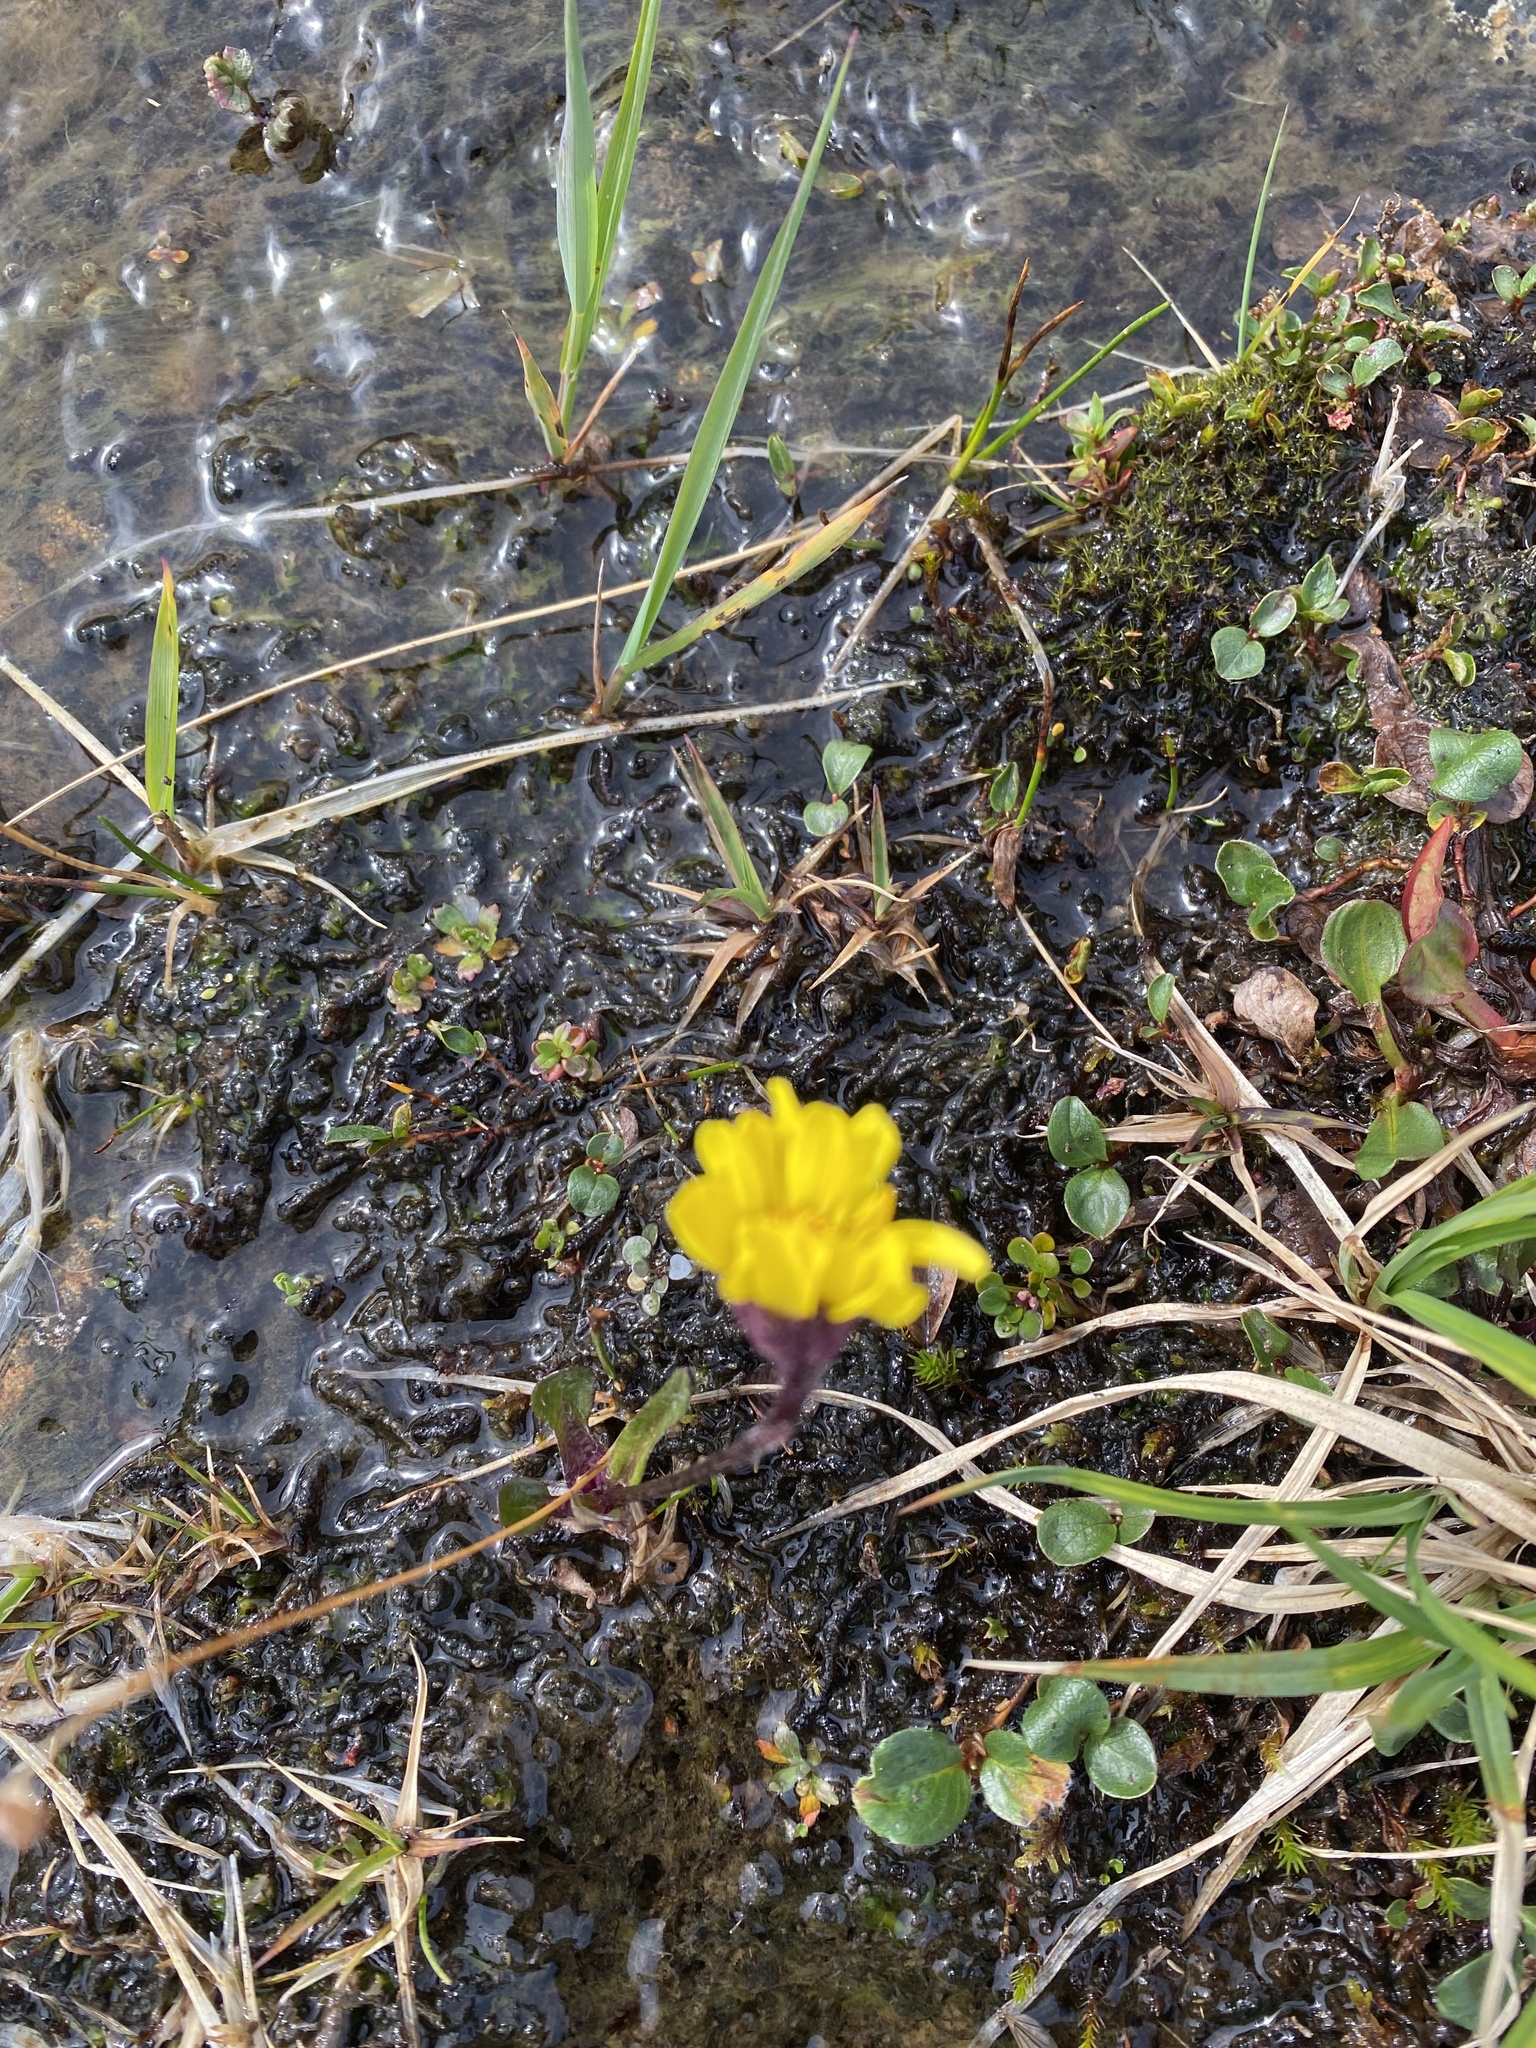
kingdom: Plantae
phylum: Tracheophyta
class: Magnoliopsida
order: Asterales
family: Asteraceae
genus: Tephroseris
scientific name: Tephroseris integrifolia
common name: Field fleawort
